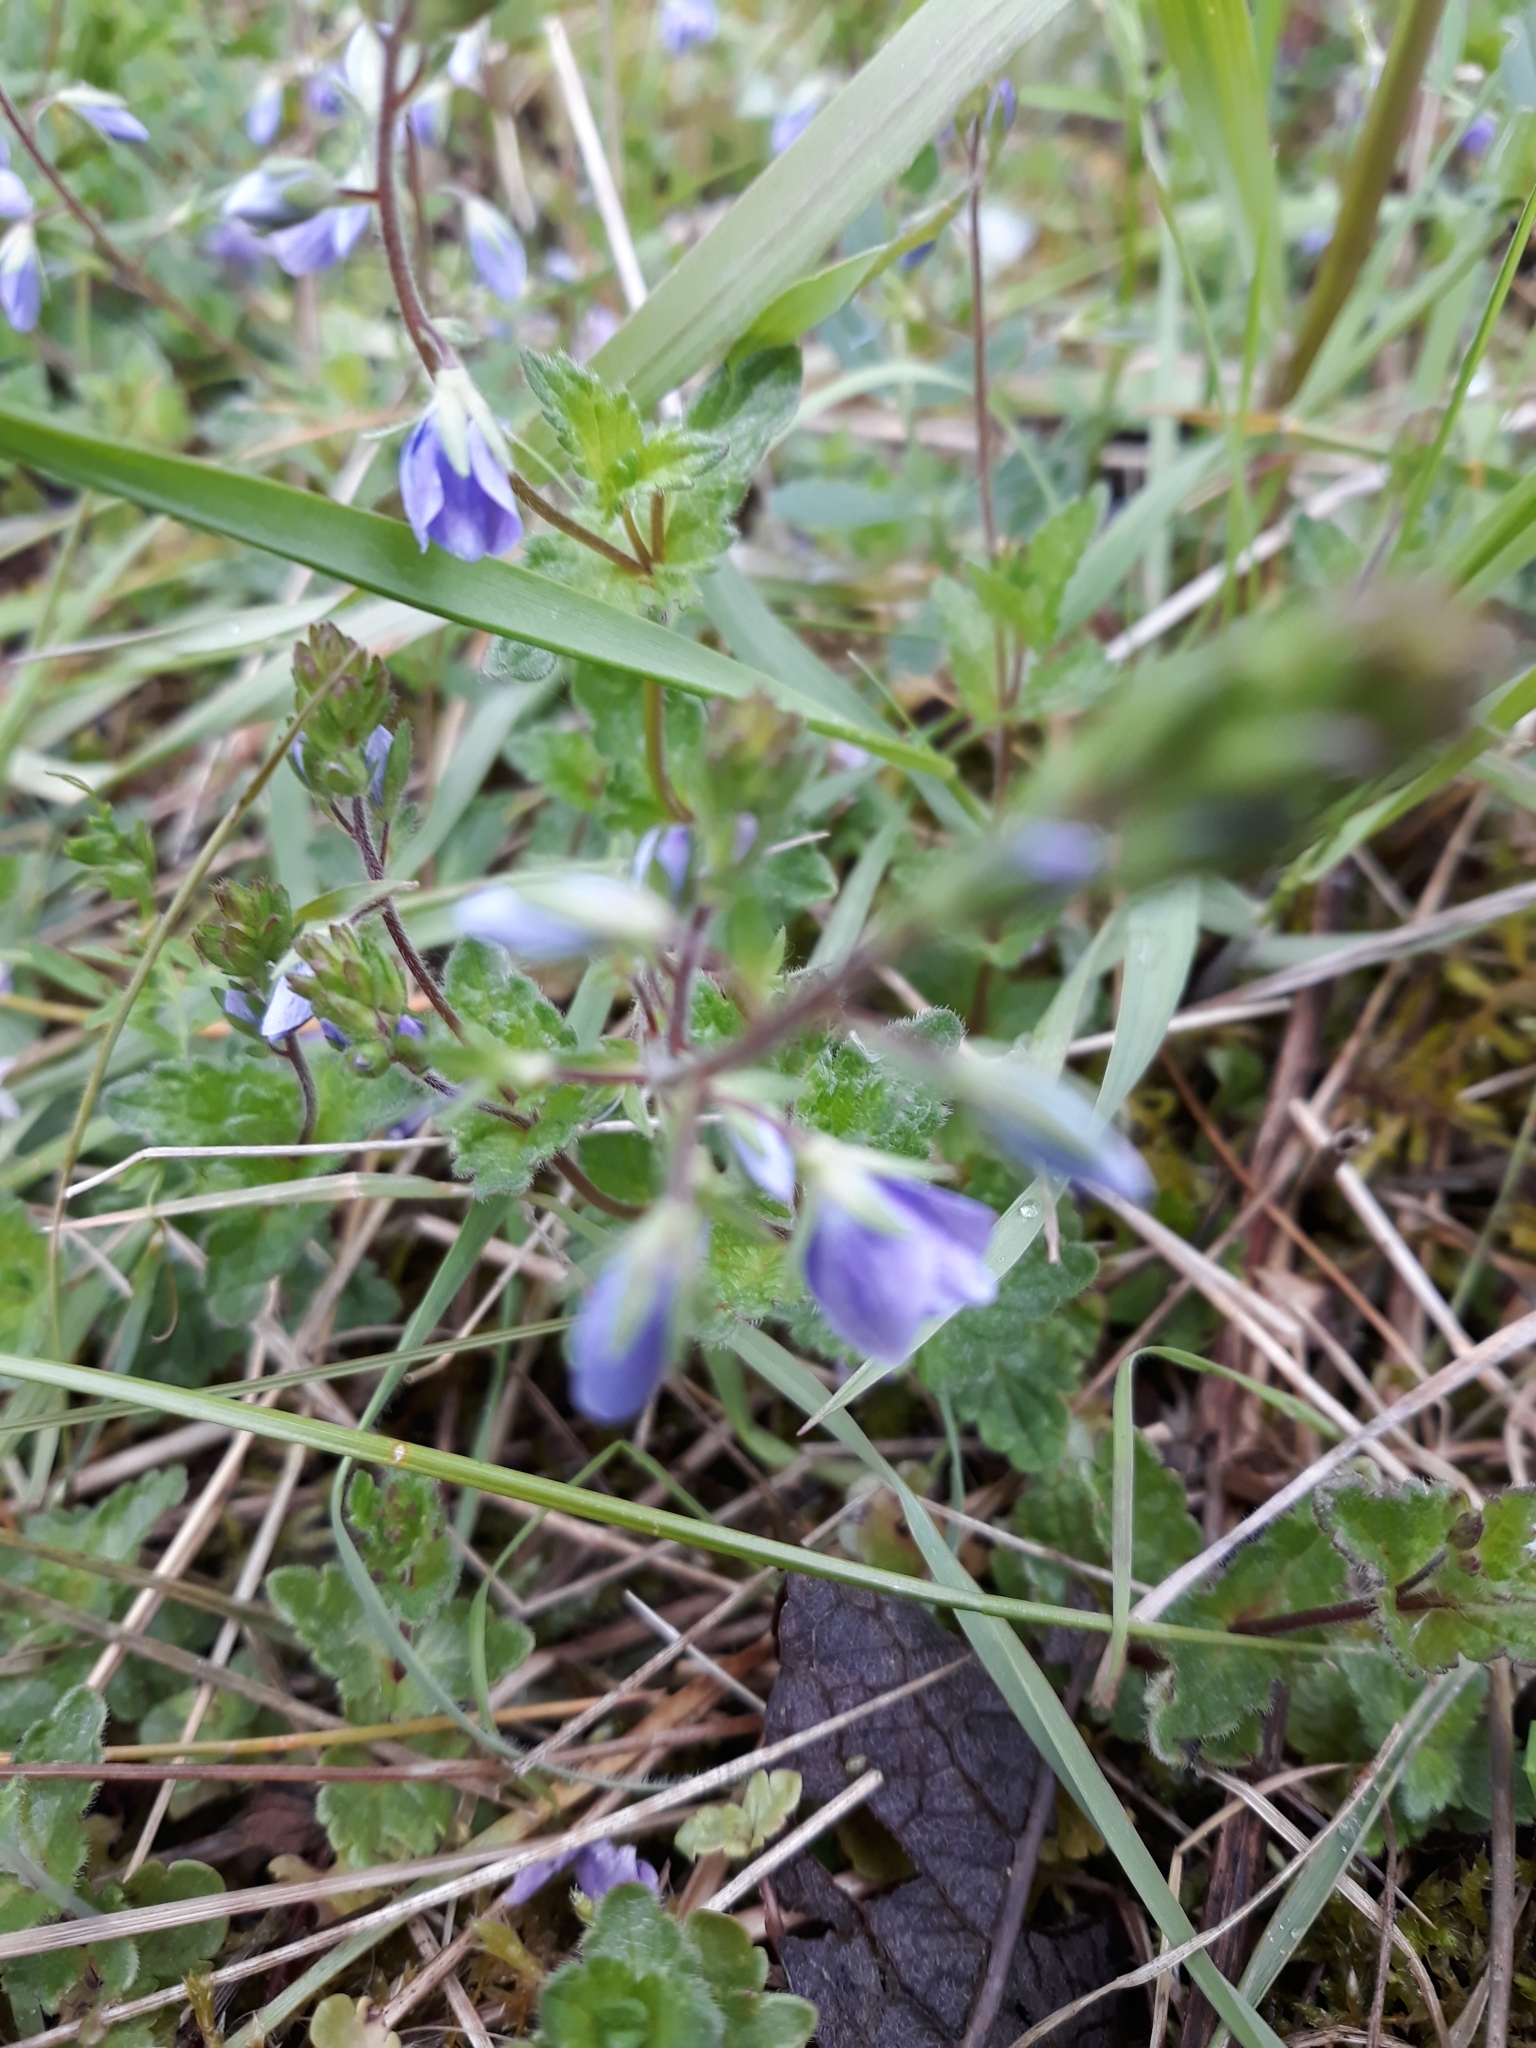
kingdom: Plantae
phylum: Tracheophyta
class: Magnoliopsida
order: Lamiales
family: Plantaginaceae
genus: Veronica
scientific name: Veronica chamaedrys
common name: Germander speedwell
